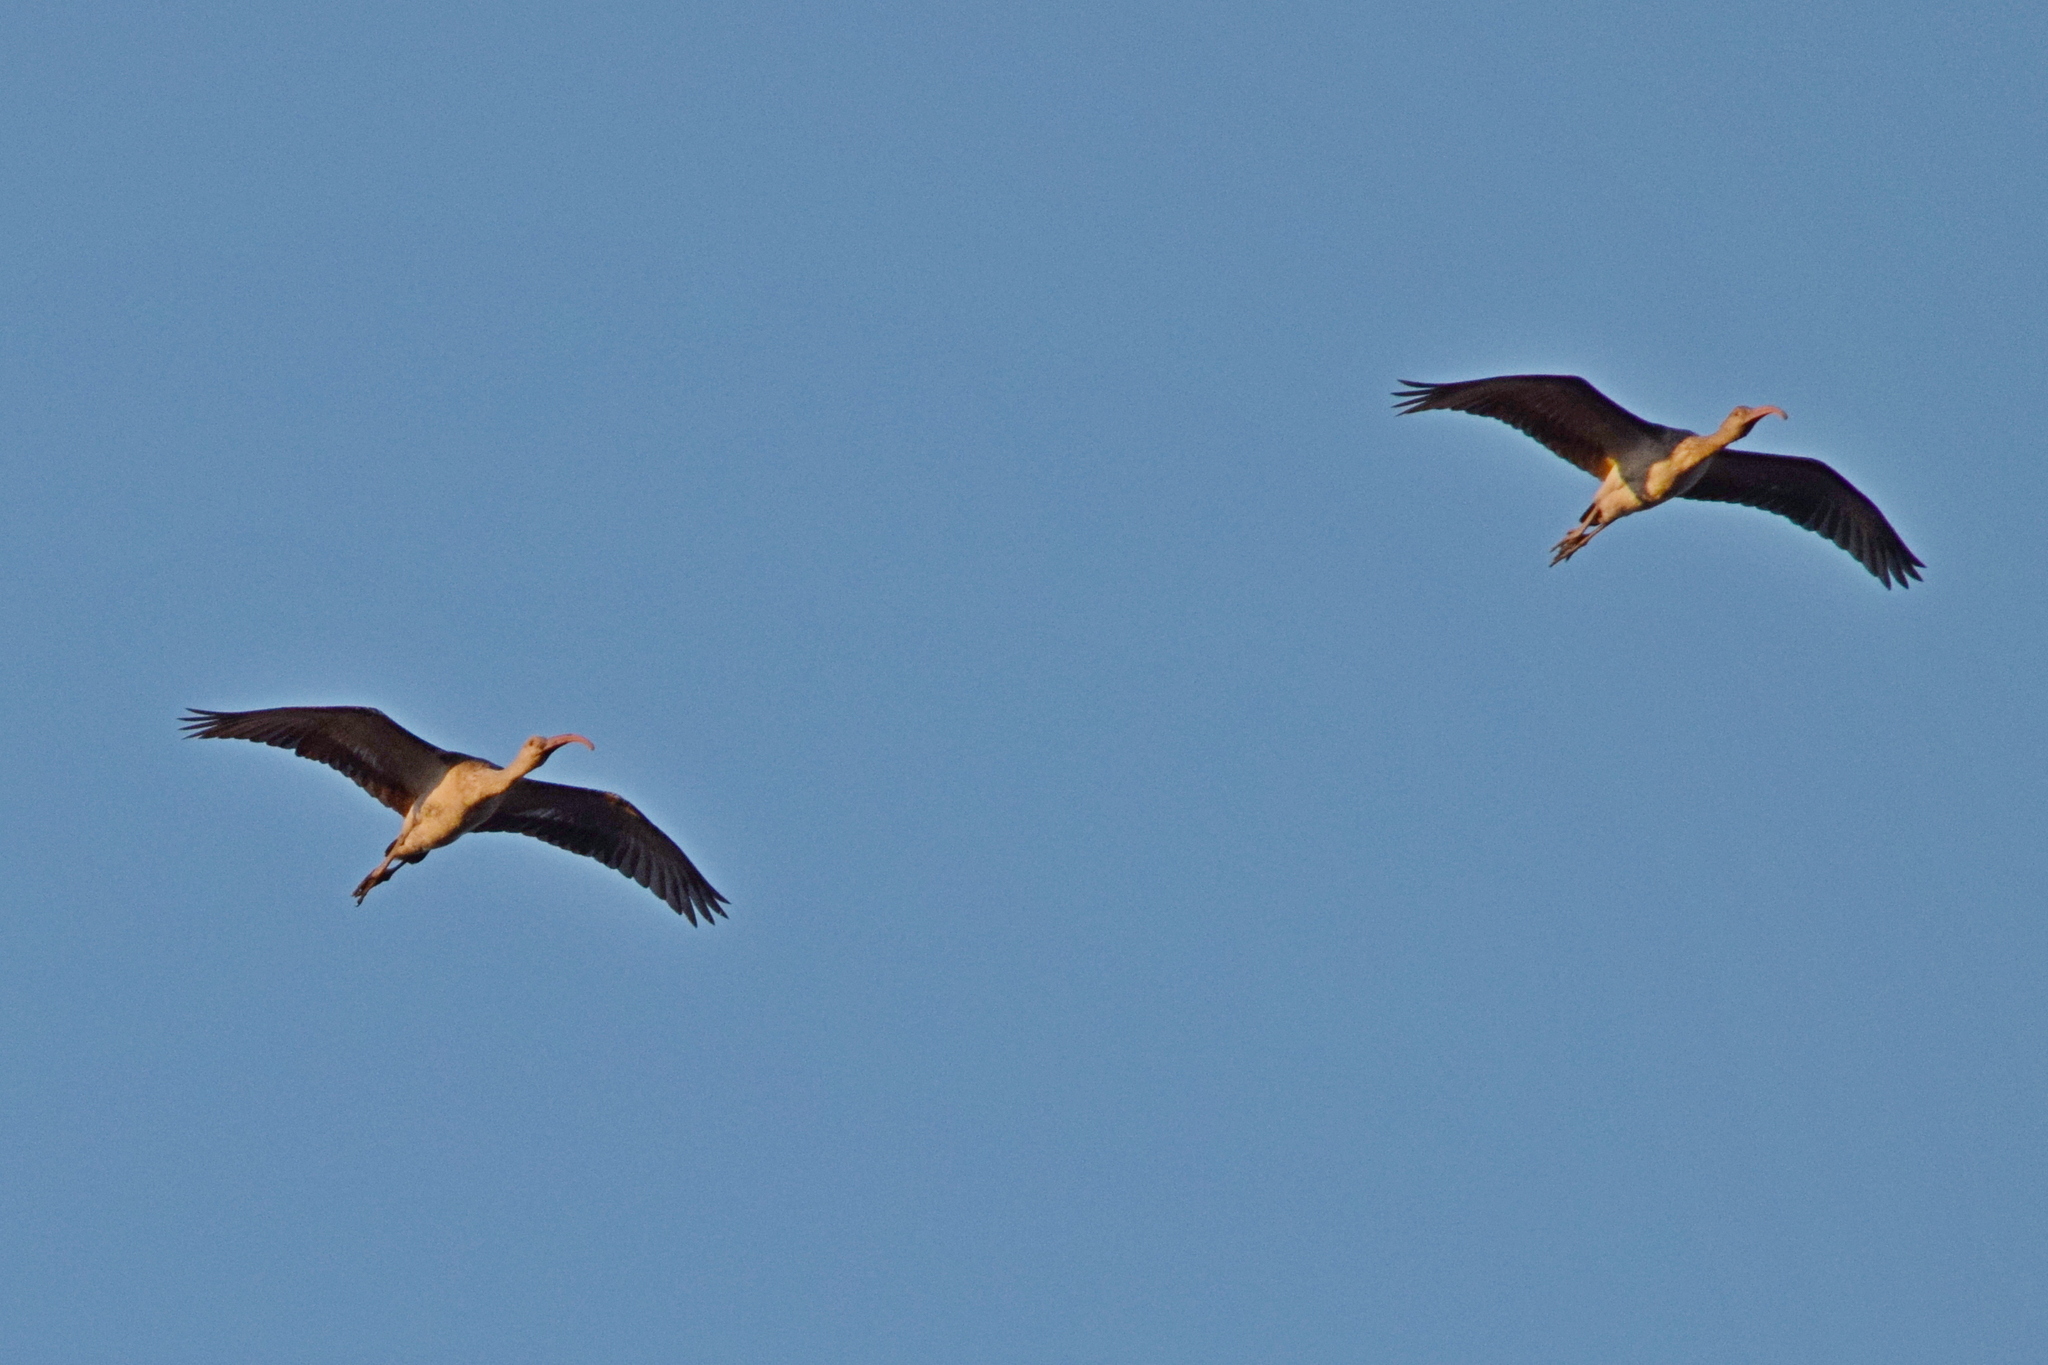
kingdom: Animalia
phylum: Chordata
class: Aves
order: Pelecaniformes
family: Threskiornithidae
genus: Eudocimus
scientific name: Eudocimus albus
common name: White ibis
